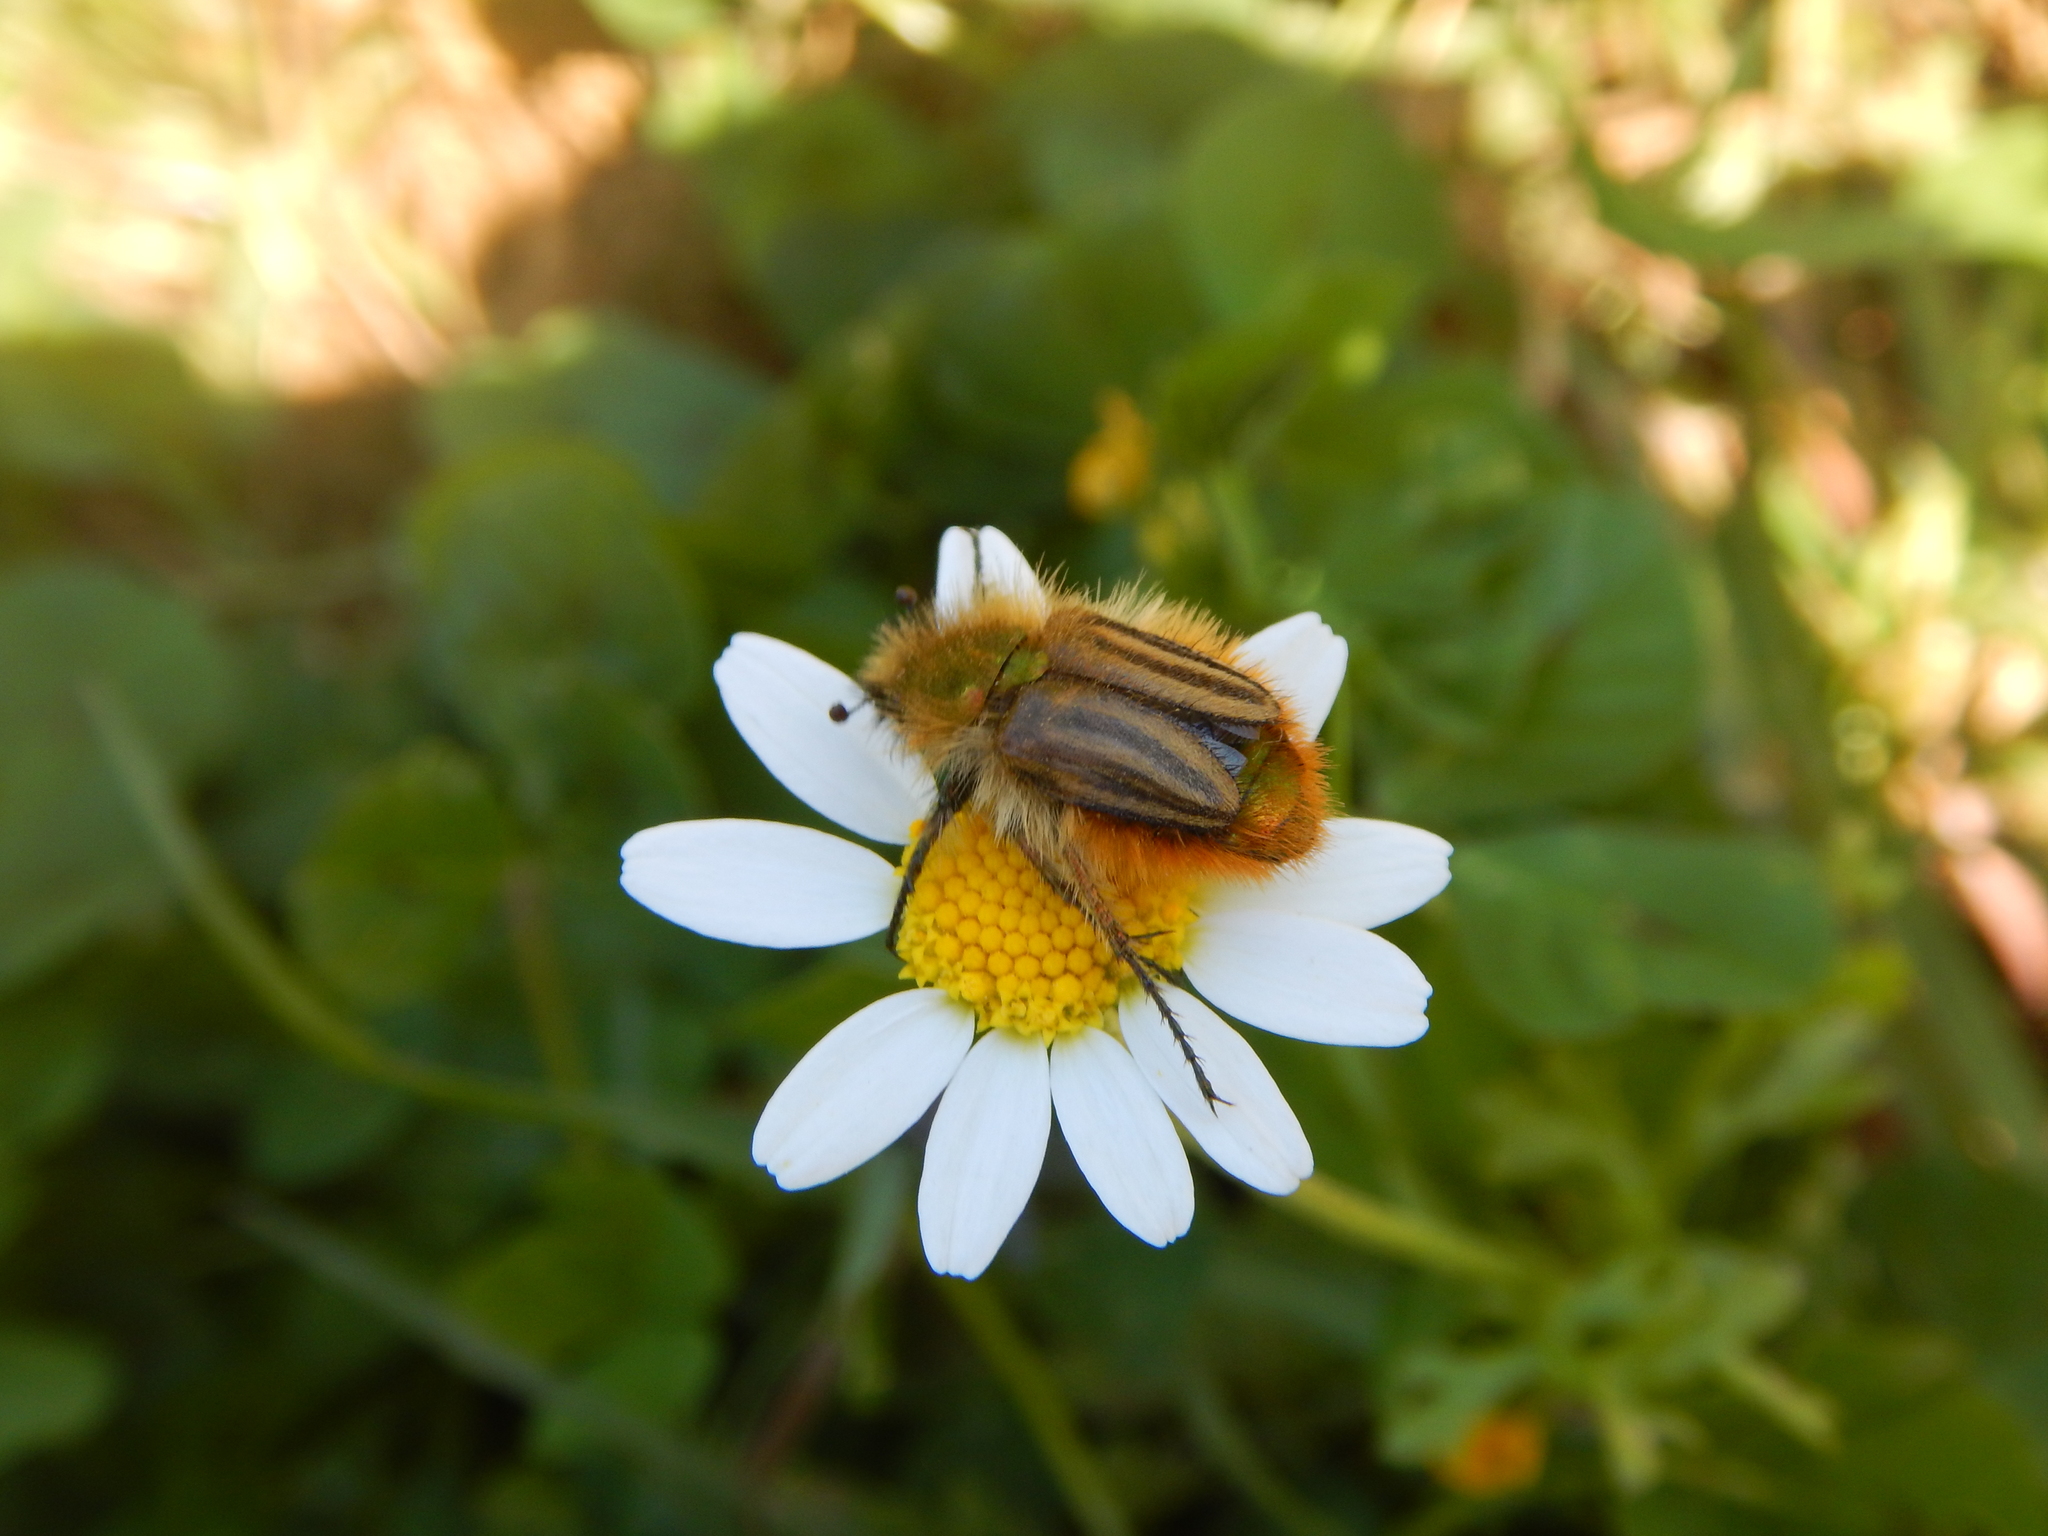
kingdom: Animalia
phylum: Arthropoda
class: Insecta
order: Coleoptera
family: Glaphyridae
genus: Eulasia
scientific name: Eulasia pareyssei
